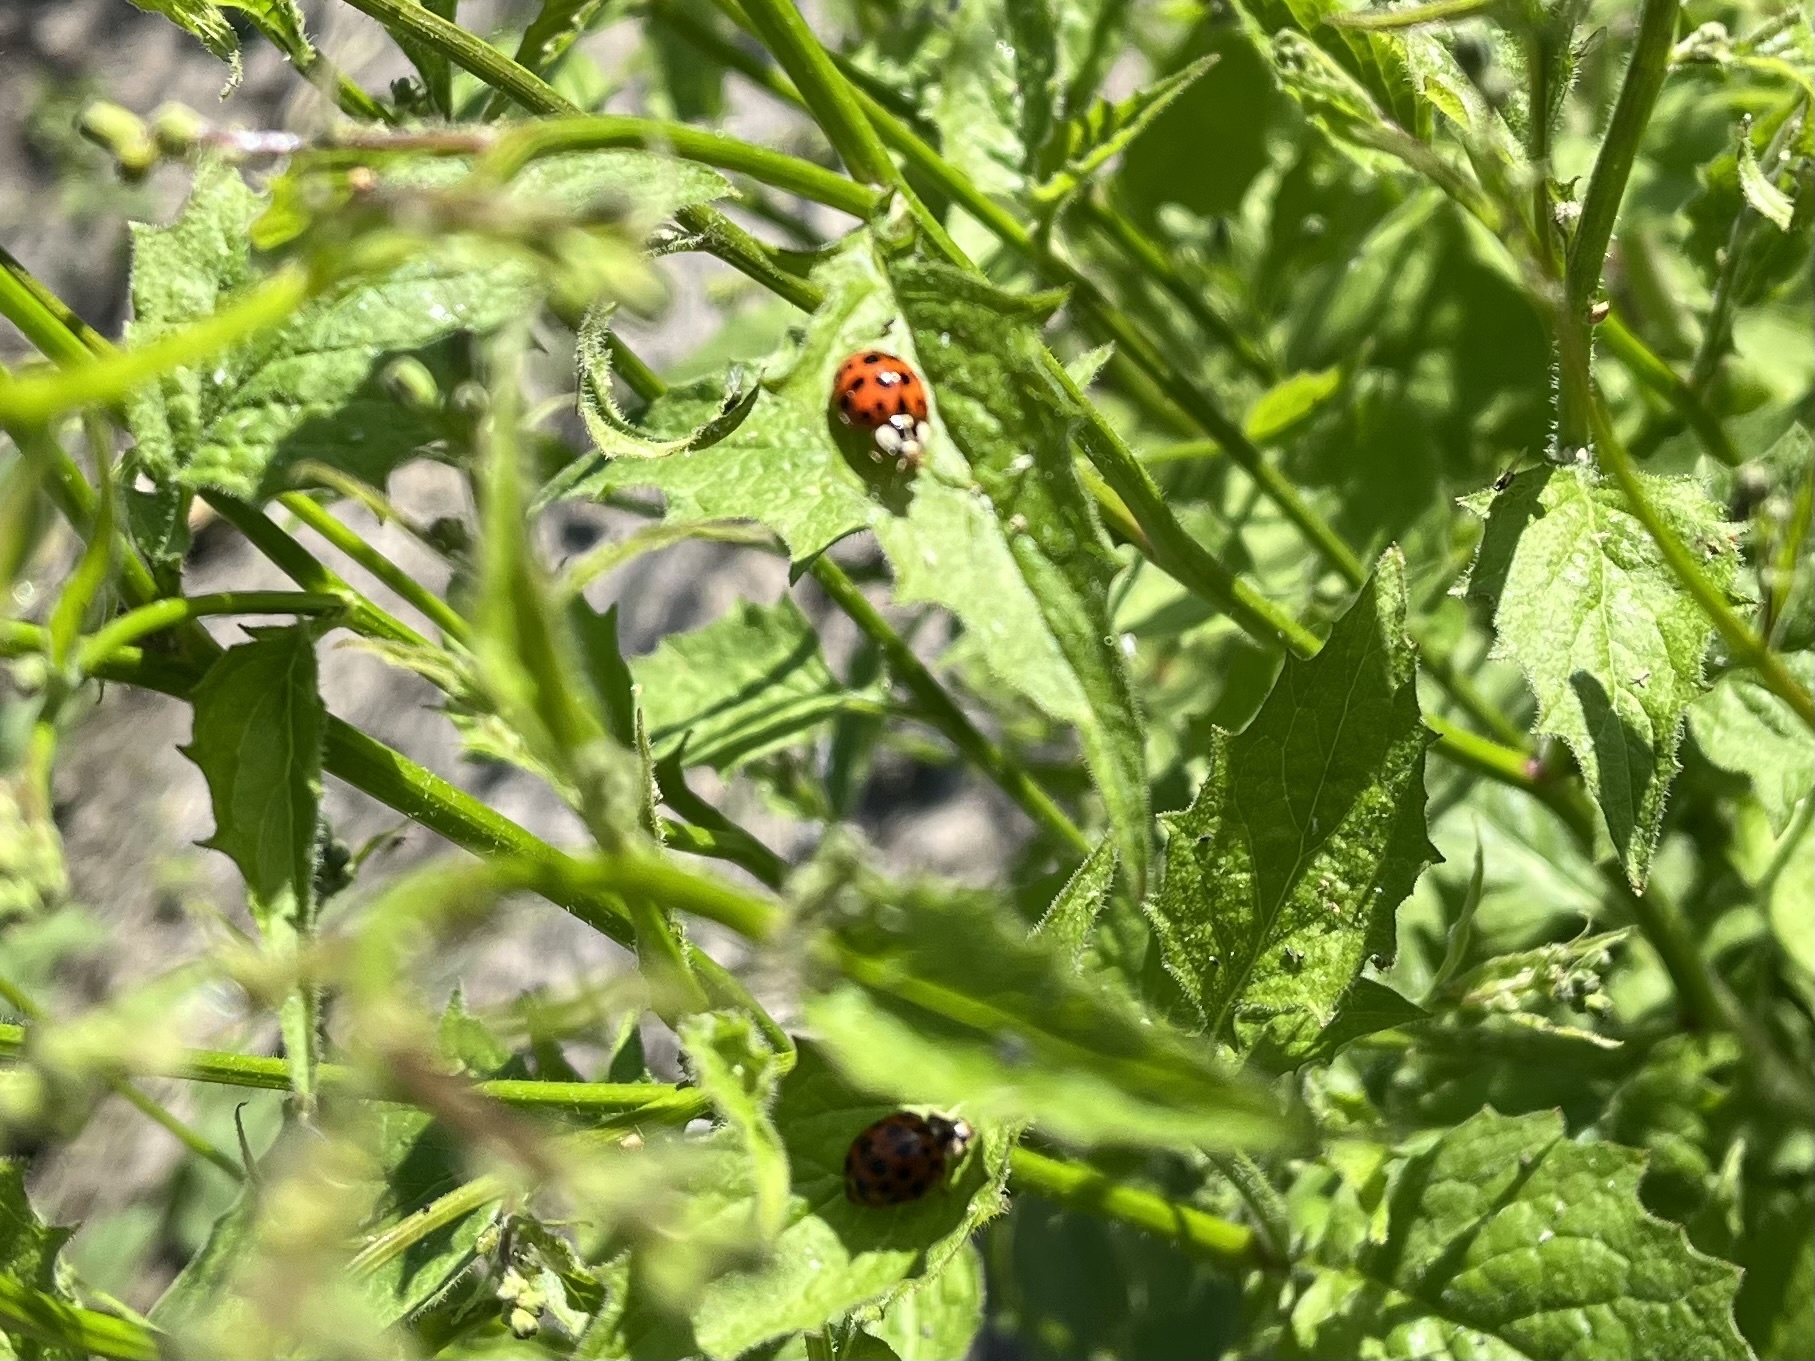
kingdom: Animalia
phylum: Arthropoda
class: Insecta
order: Coleoptera
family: Coccinellidae
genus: Harmonia
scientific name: Harmonia axyridis
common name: Harlequin ladybird
